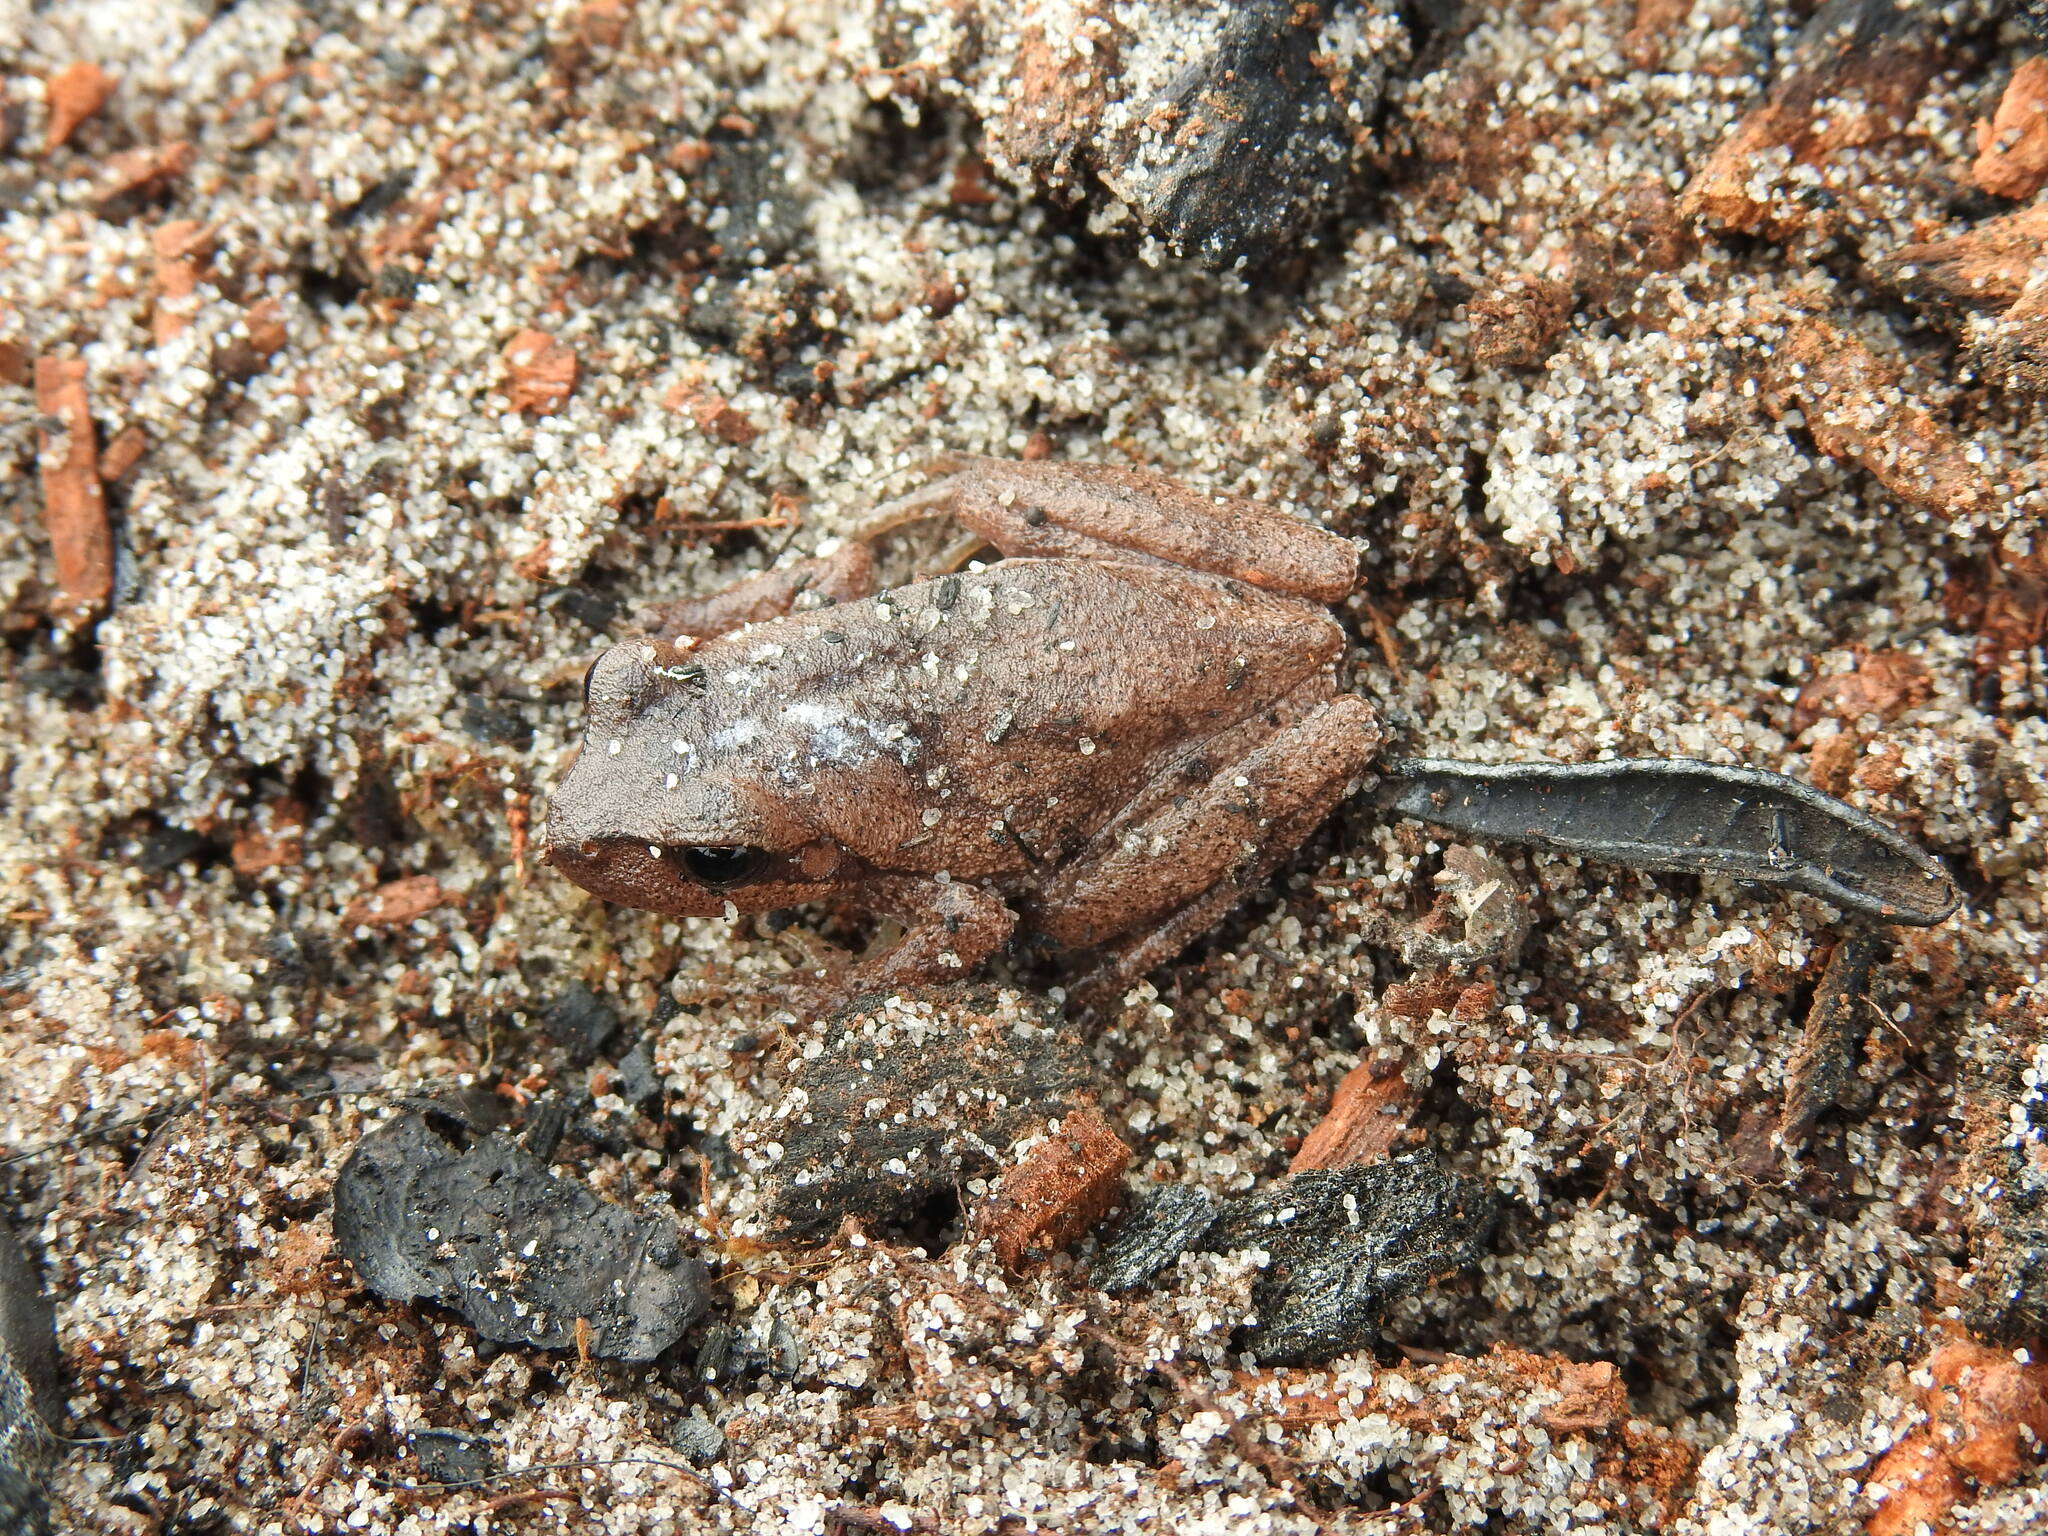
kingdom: Animalia
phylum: Chordata
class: Amphibia
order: Anura
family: Hylidae
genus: Hyla
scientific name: Hyla femoralis
